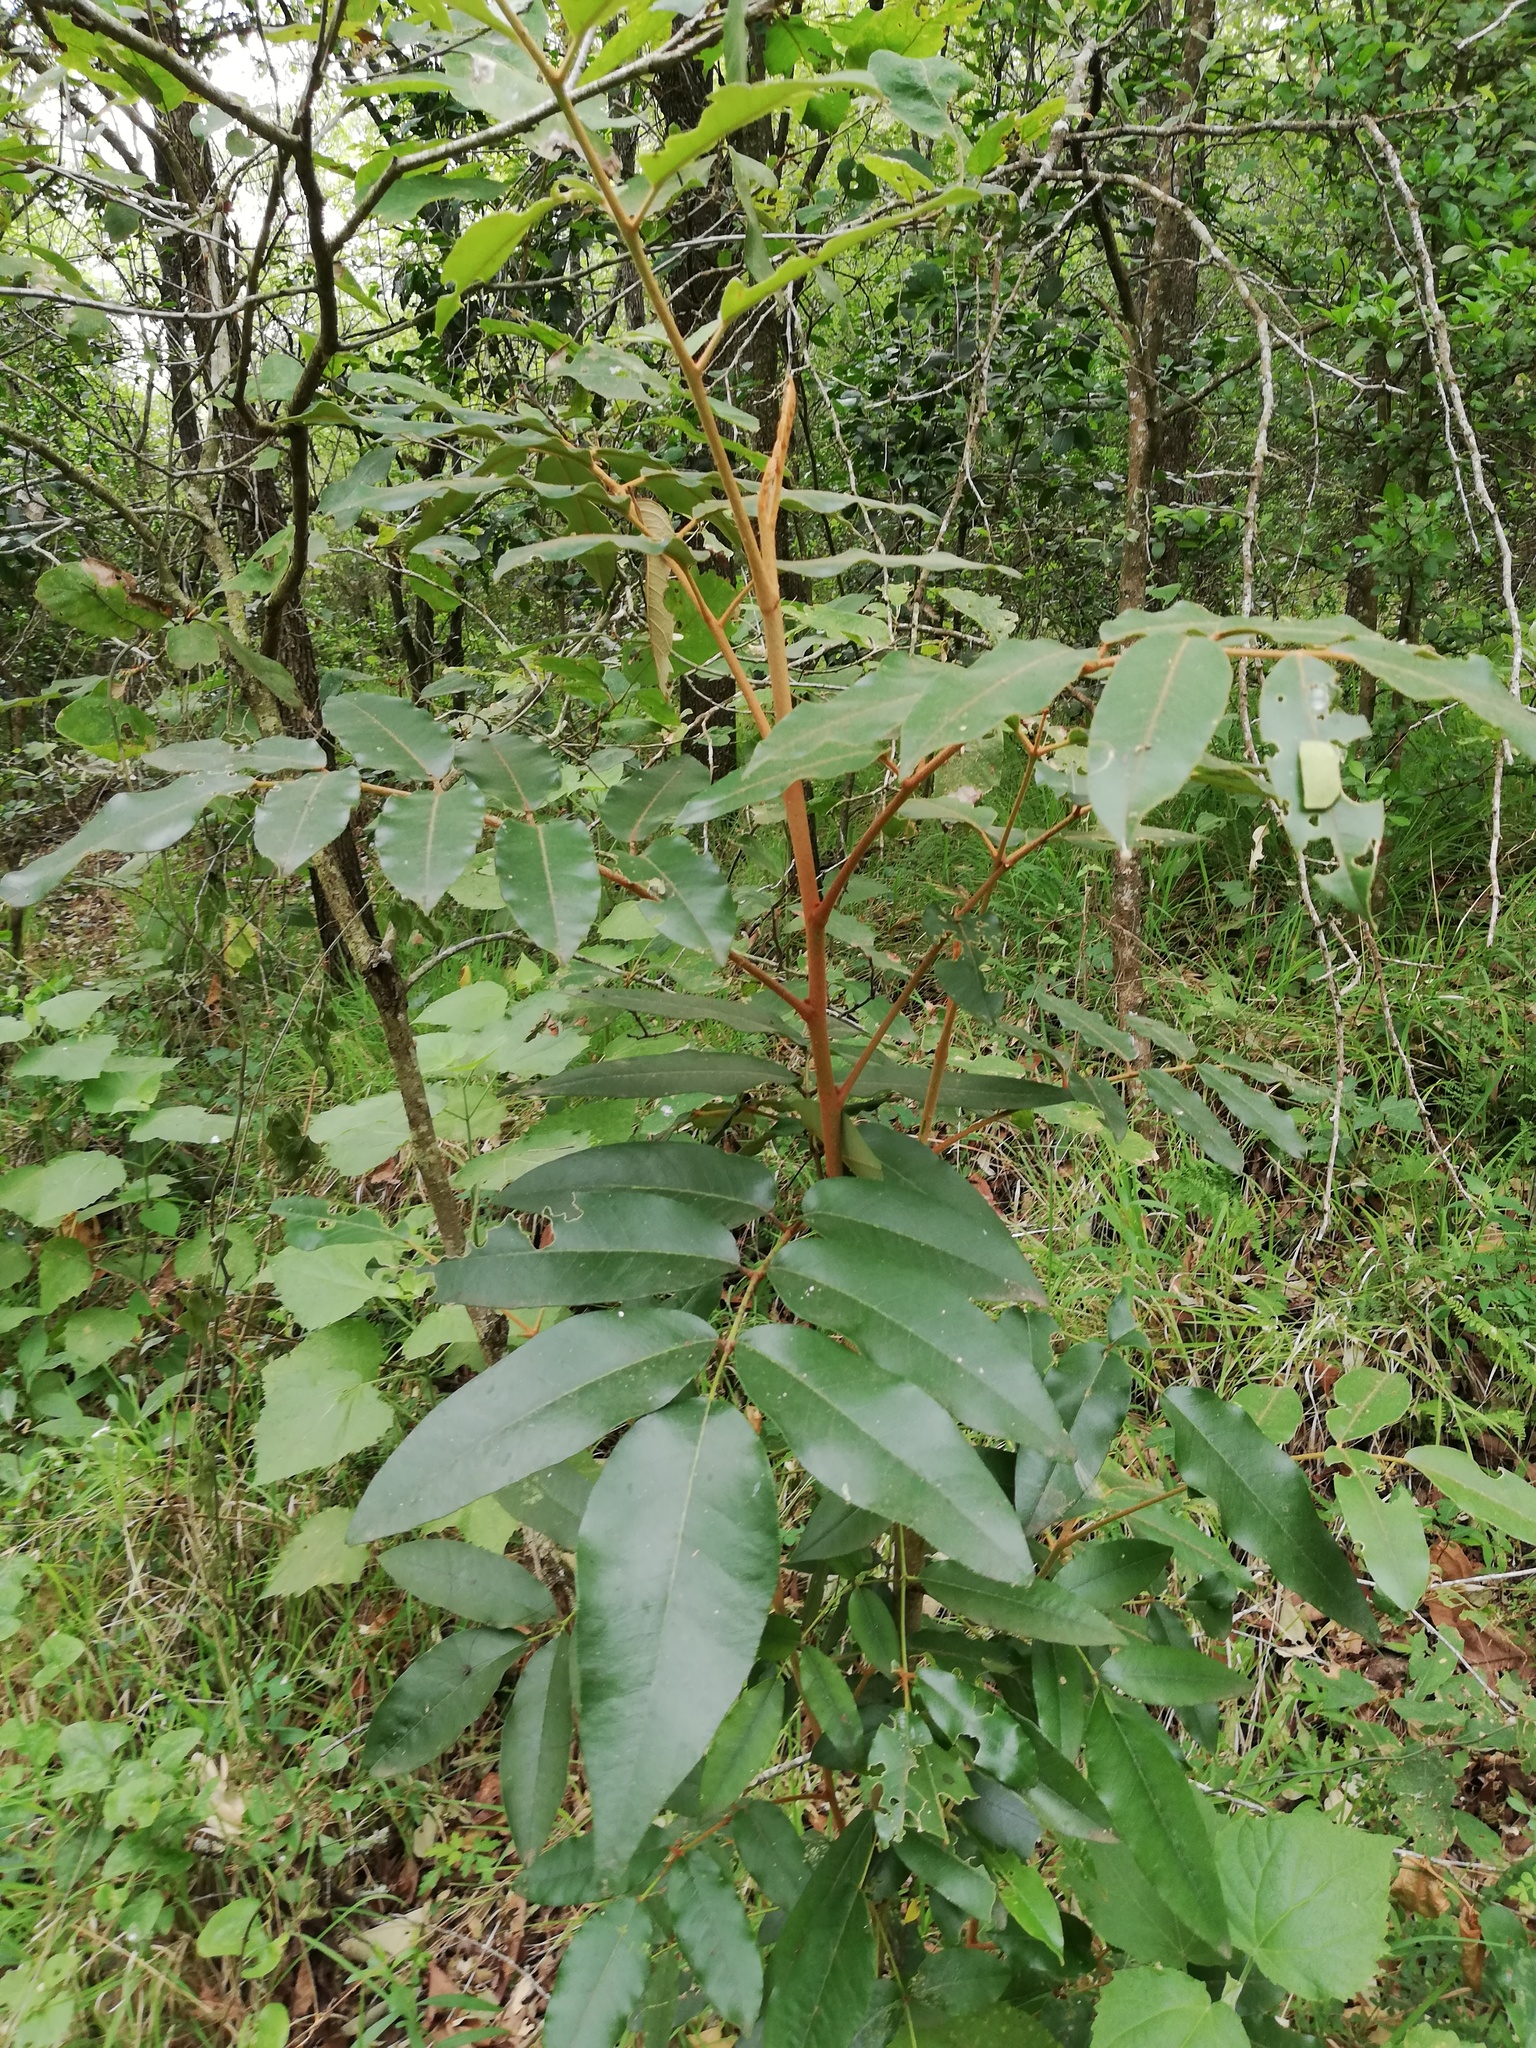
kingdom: Plantae
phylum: Tracheophyta
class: Magnoliopsida
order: Sapindales
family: Rutaceae
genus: Decatropis
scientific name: Decatropis bicolor
